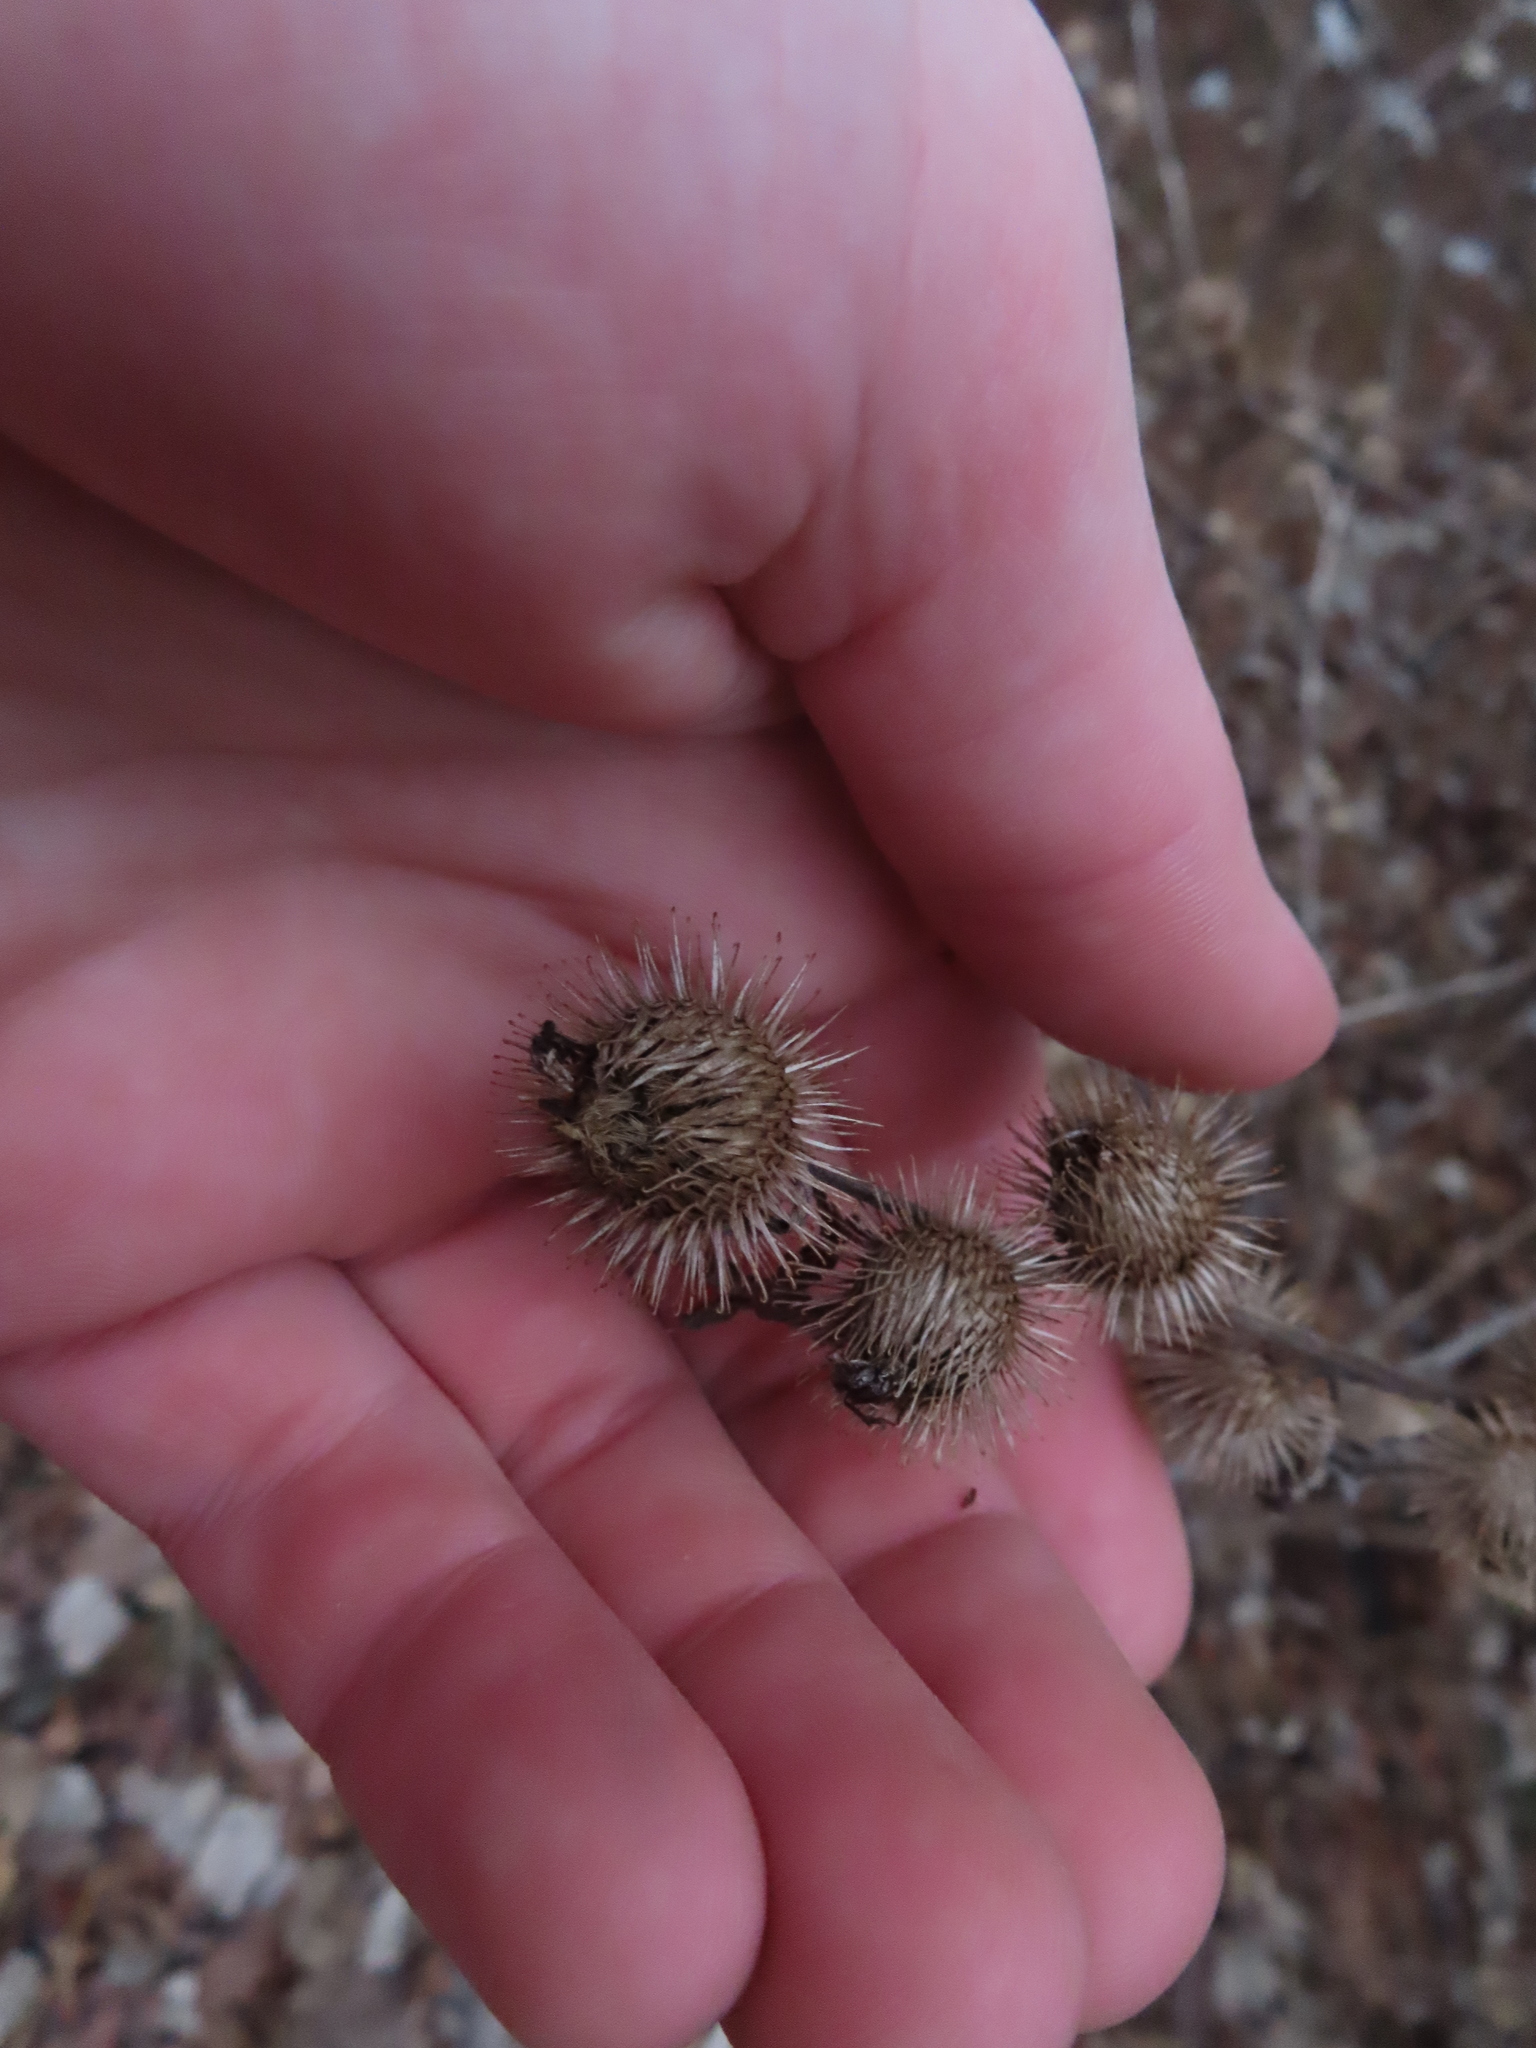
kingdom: Plantae
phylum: Tracheophyta
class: Magnoliopsida
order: Asterales
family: Asteraceae
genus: Arctium
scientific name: Arctium minus
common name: Lesser burdock
